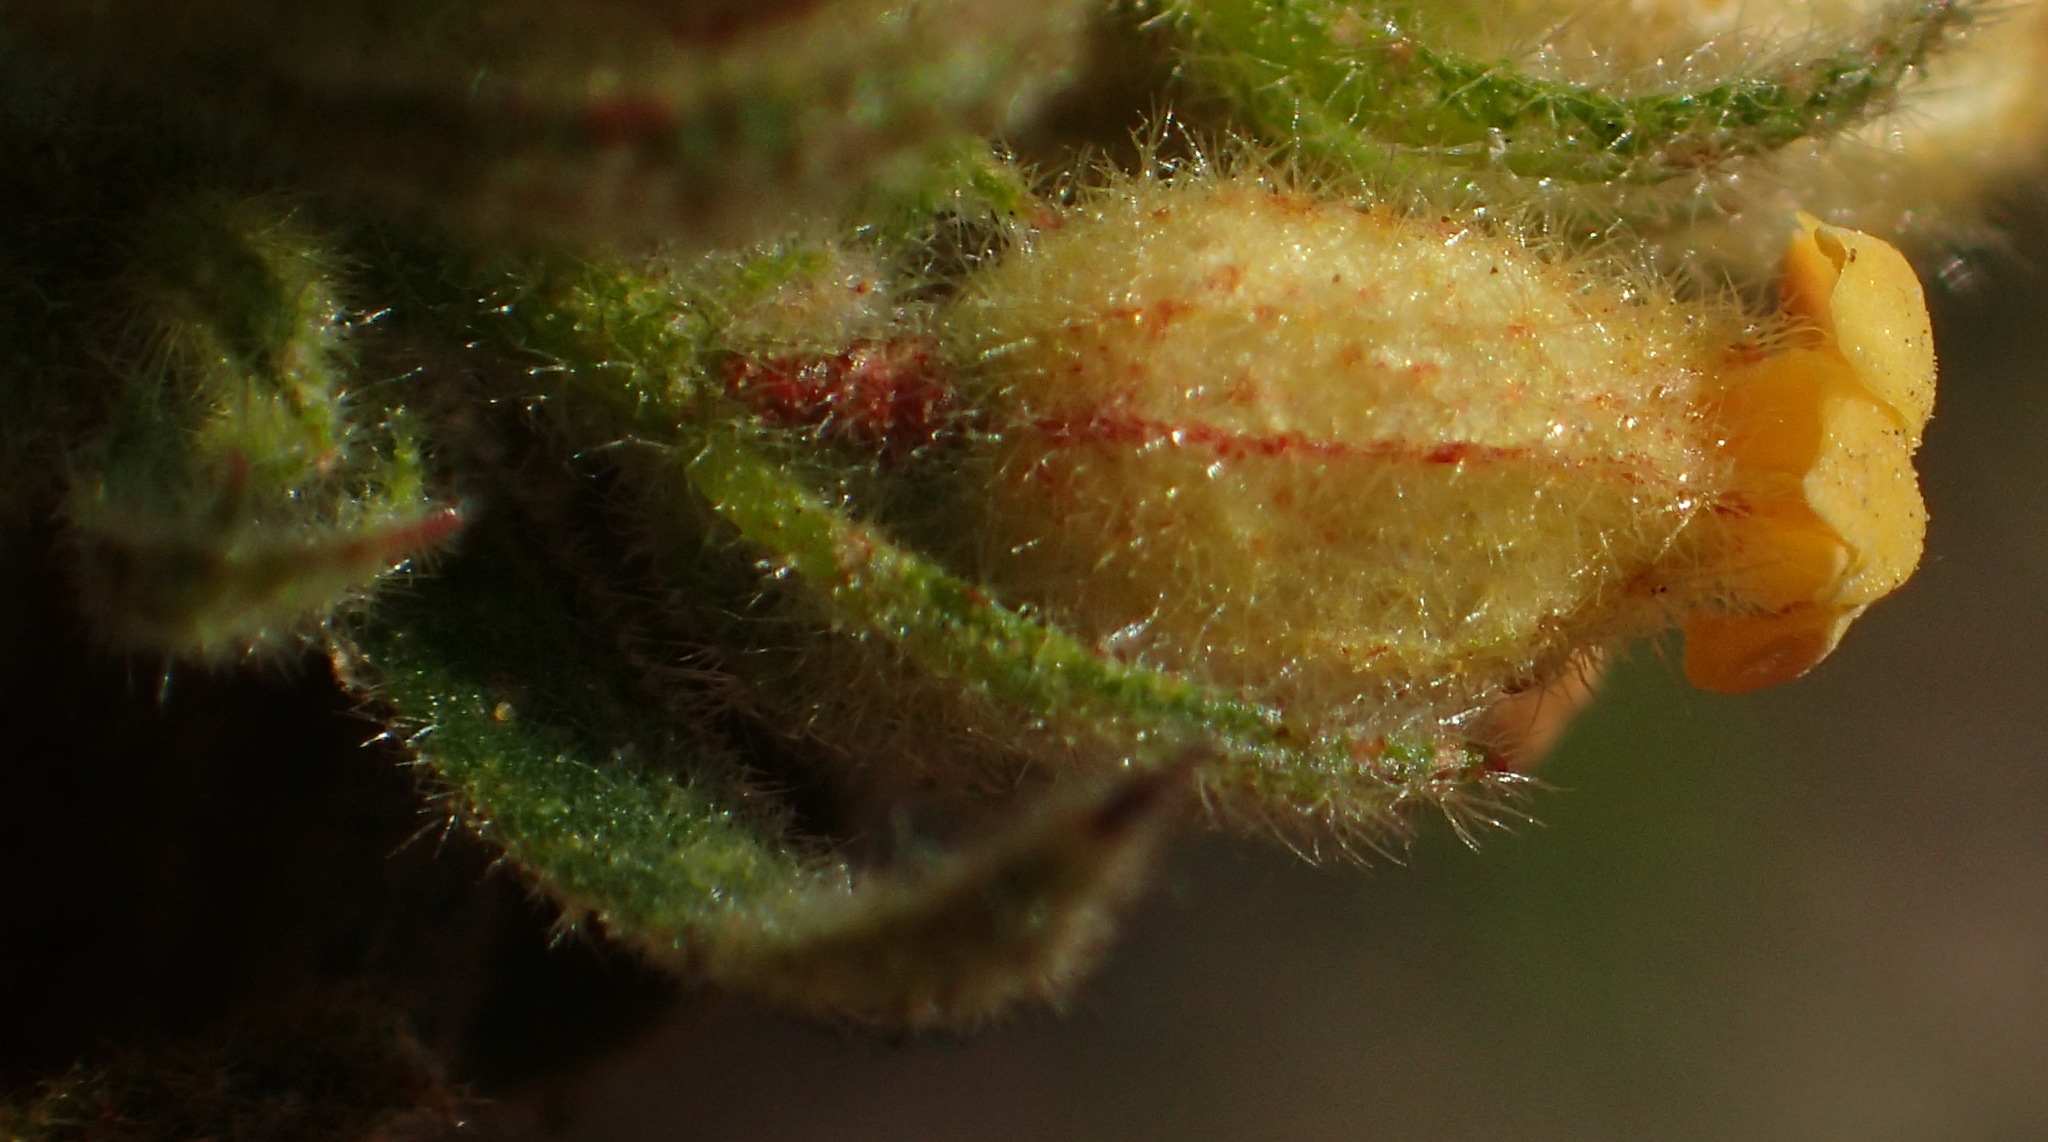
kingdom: Plantae
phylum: Tracheophyta
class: Magnoliopsida
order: Malvales
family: Malvaceae
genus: Hermannia
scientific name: Hermannia salviifolia
